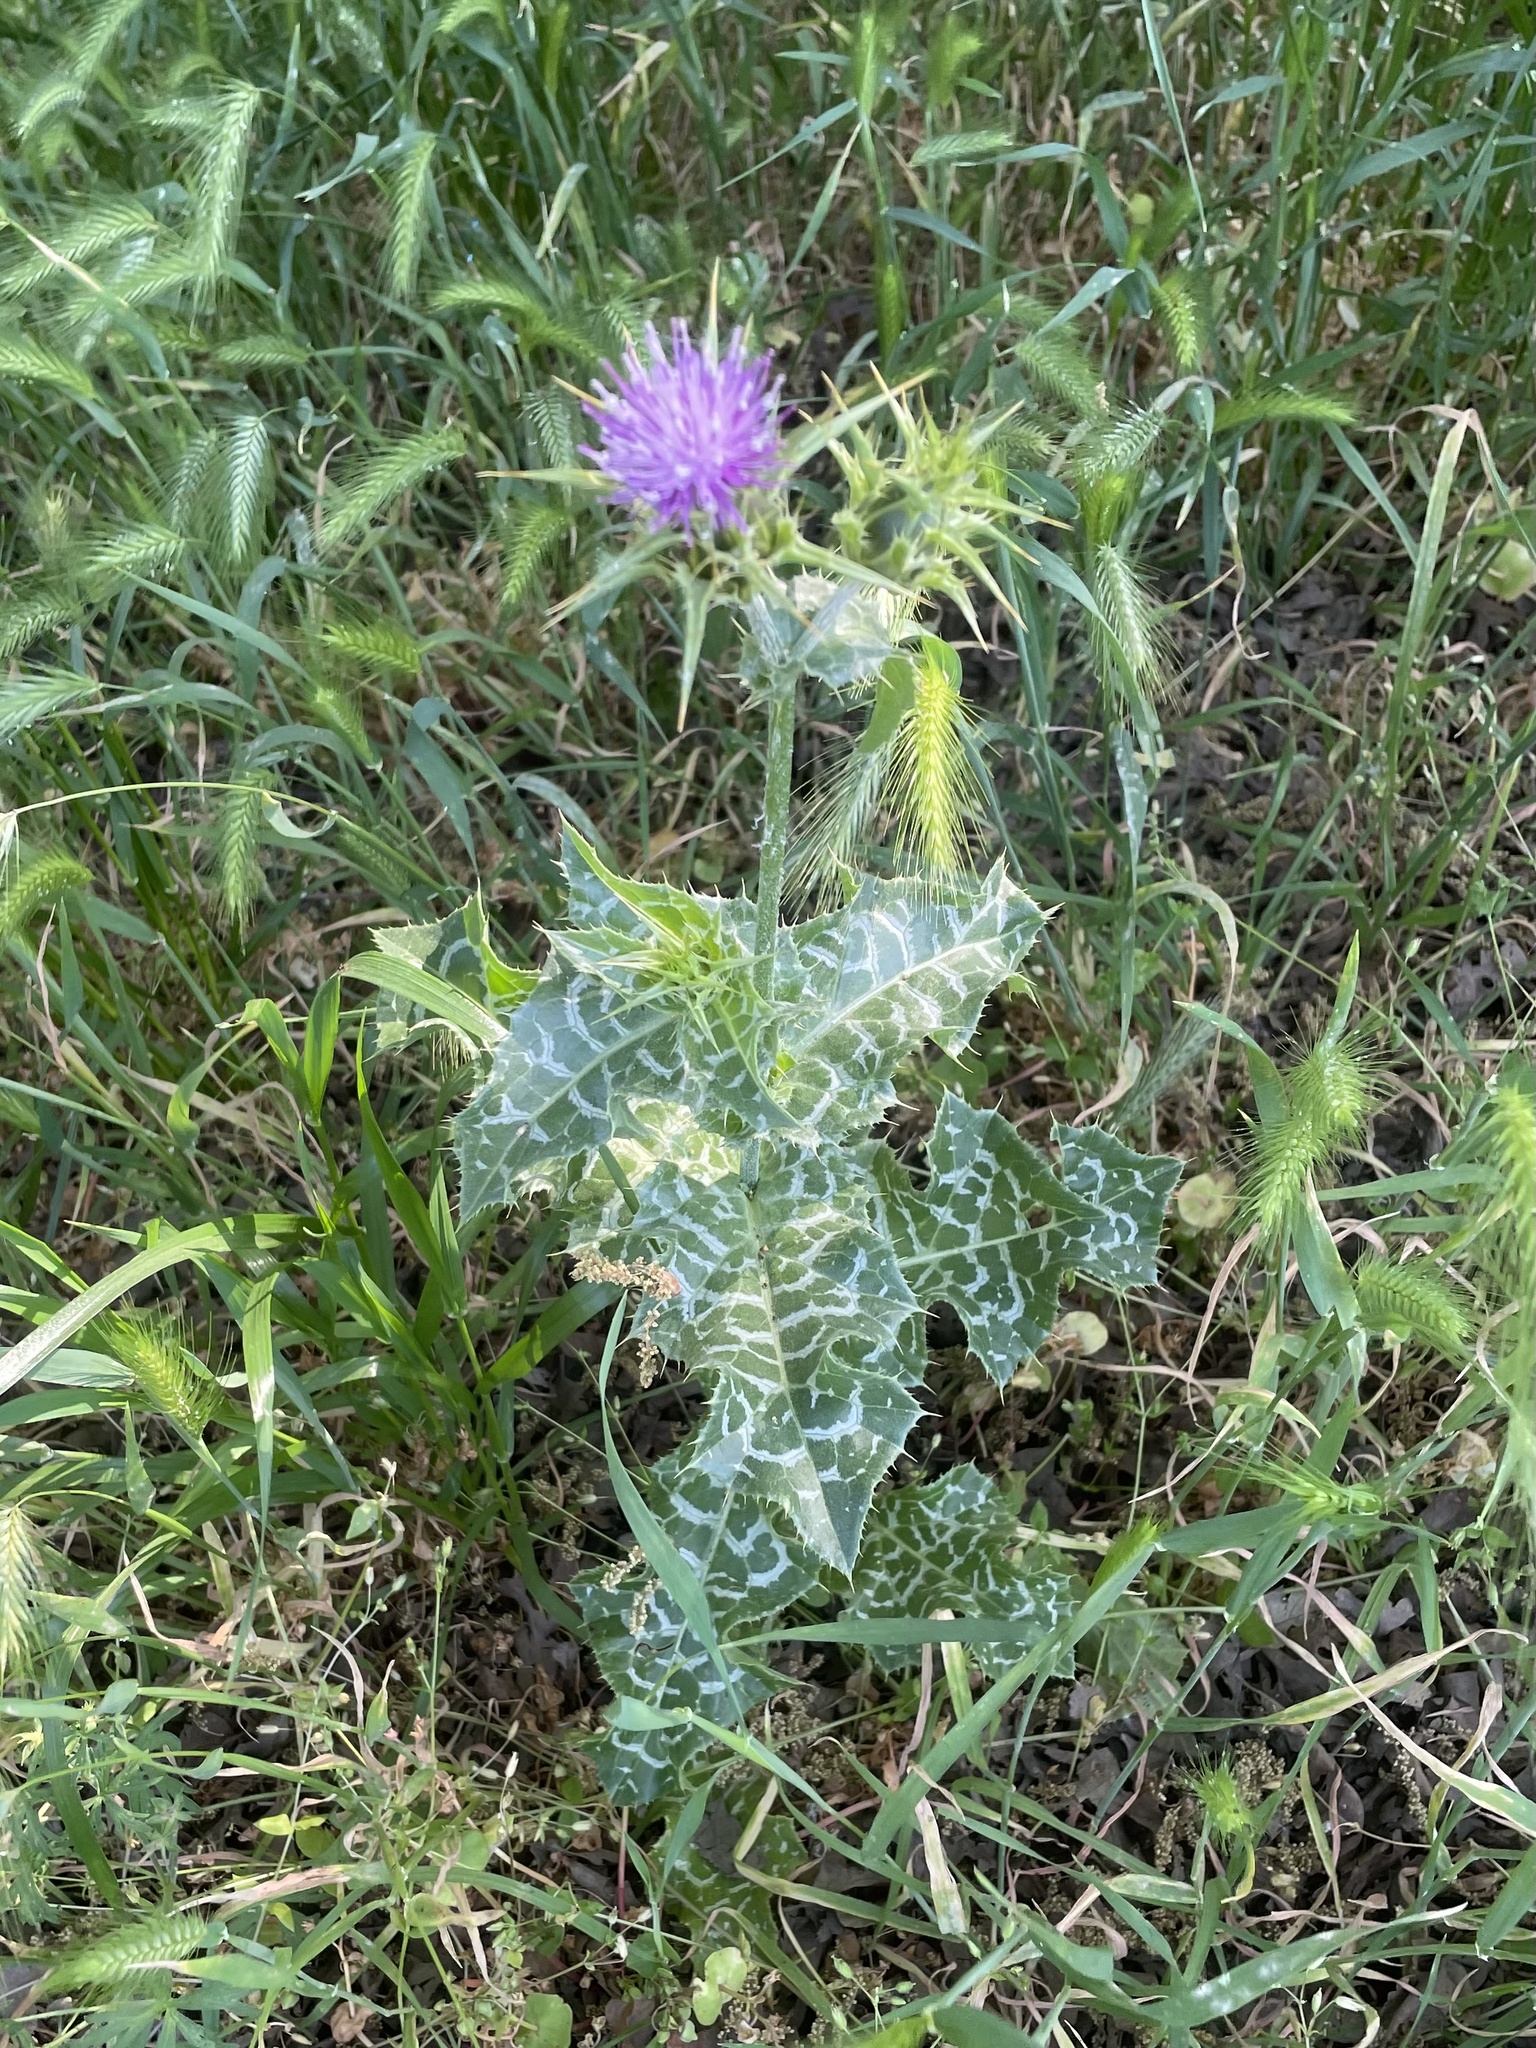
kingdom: Plantae
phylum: Tracheophyta
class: Magnoliopsida
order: Asterales
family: Asteraceae
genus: Silybum
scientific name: Silybum marianum
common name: Milk thistle
